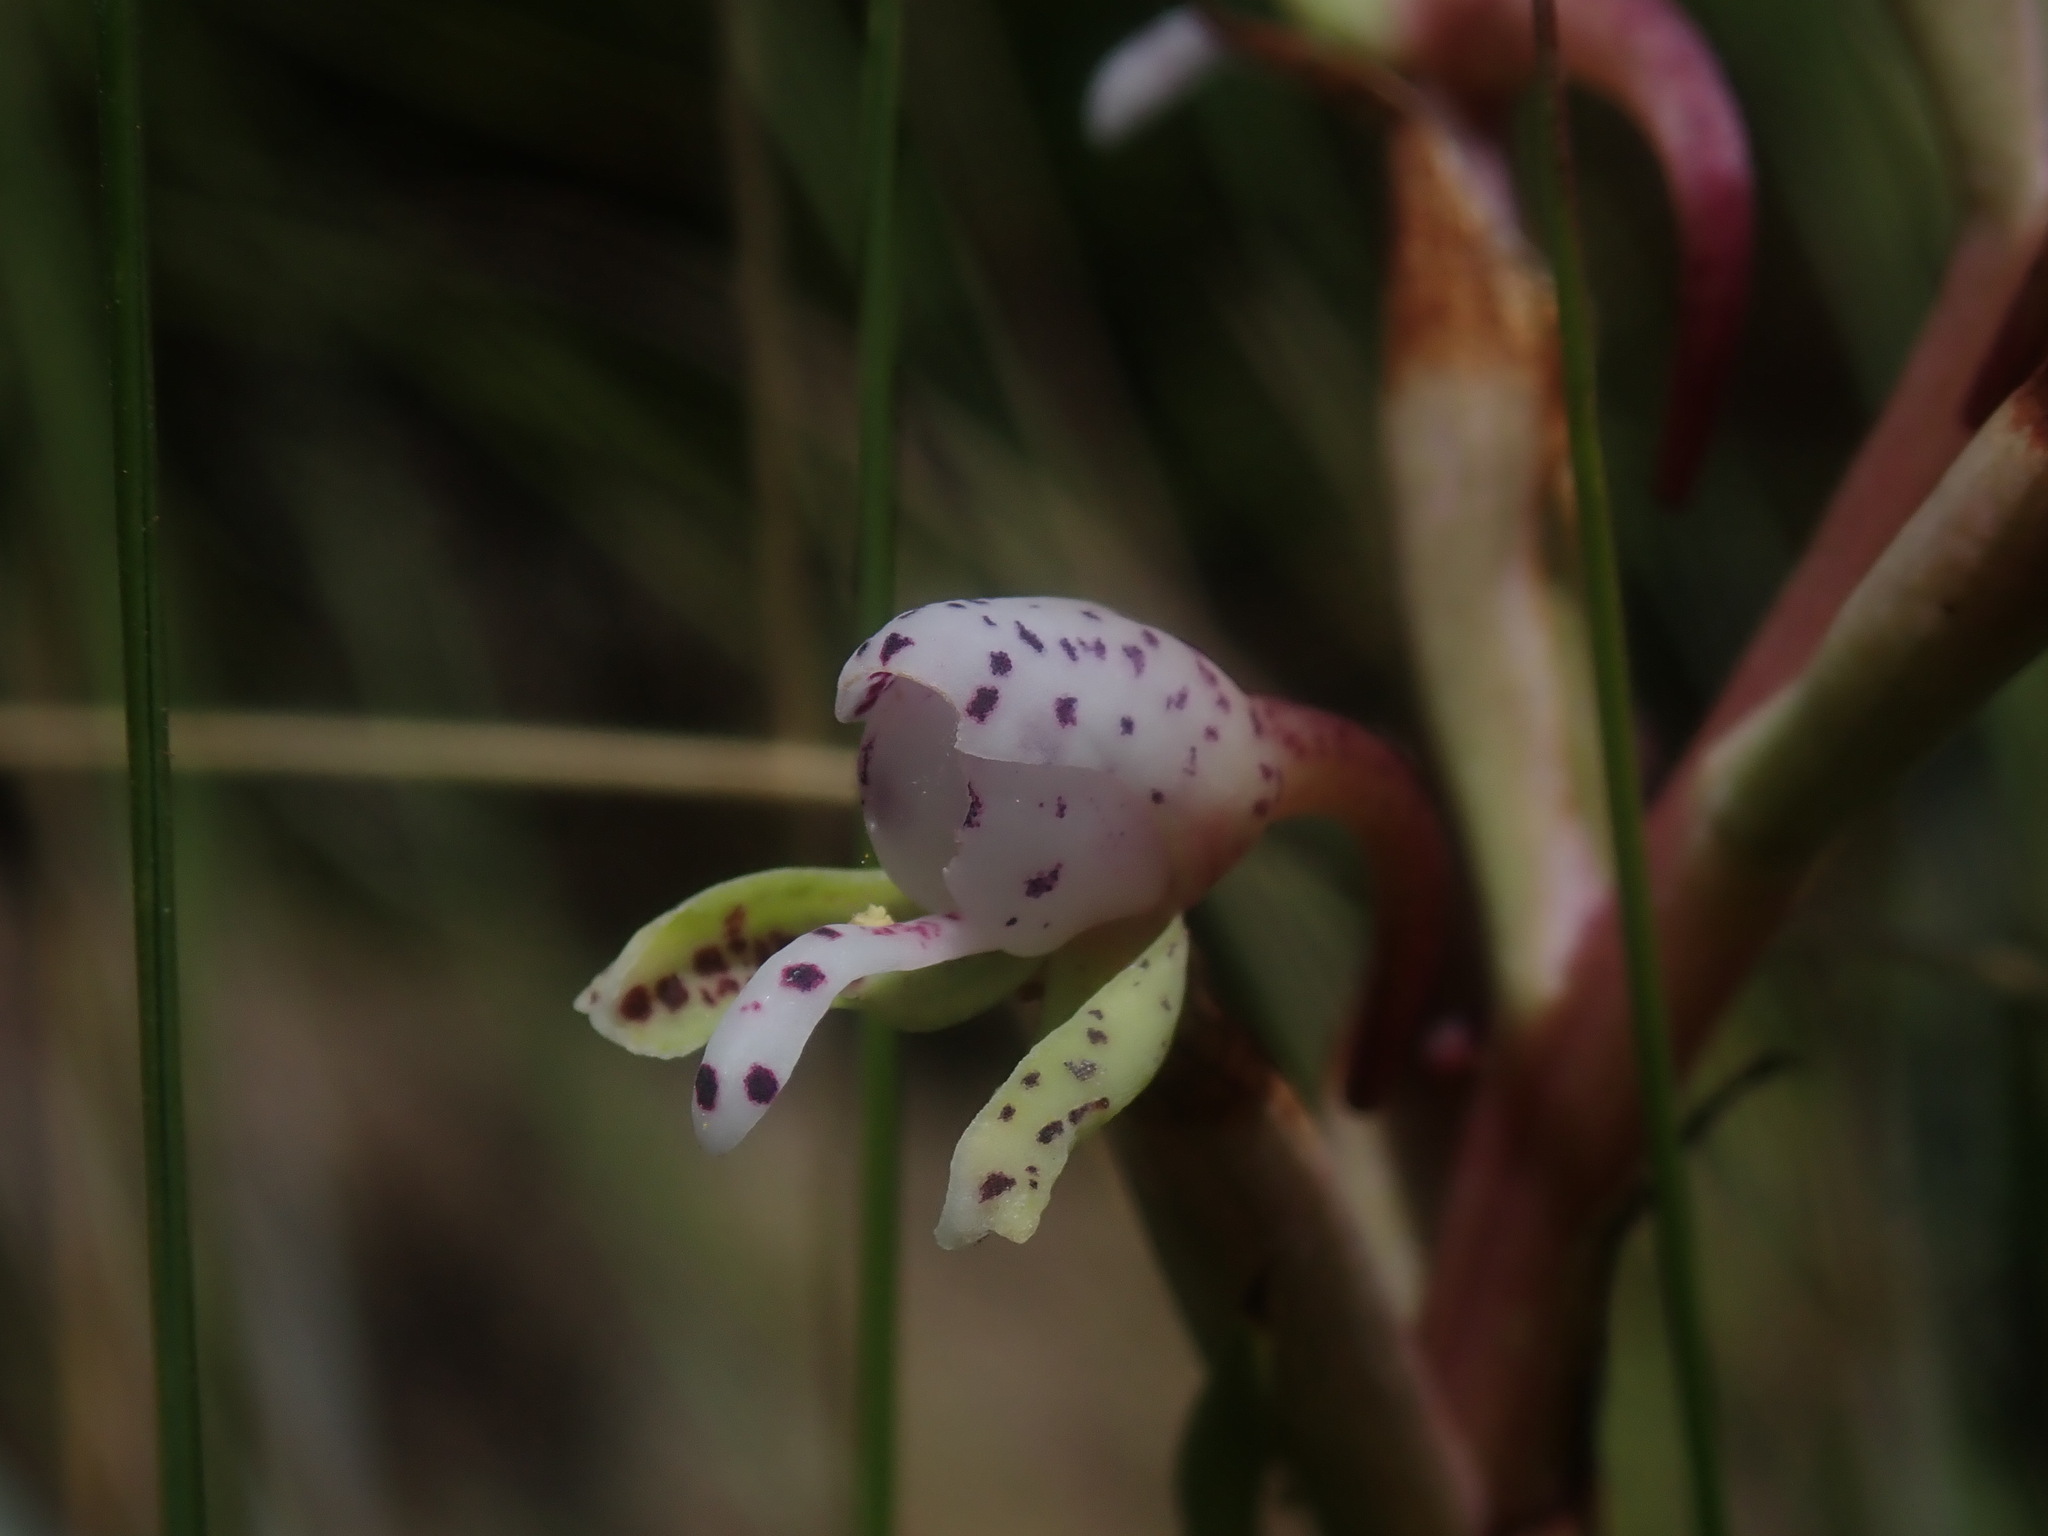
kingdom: Plantae
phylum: Tracheophyta
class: Liliopsida
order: Asparagales
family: Orchidaceae
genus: Disa
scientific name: Disa klugei
